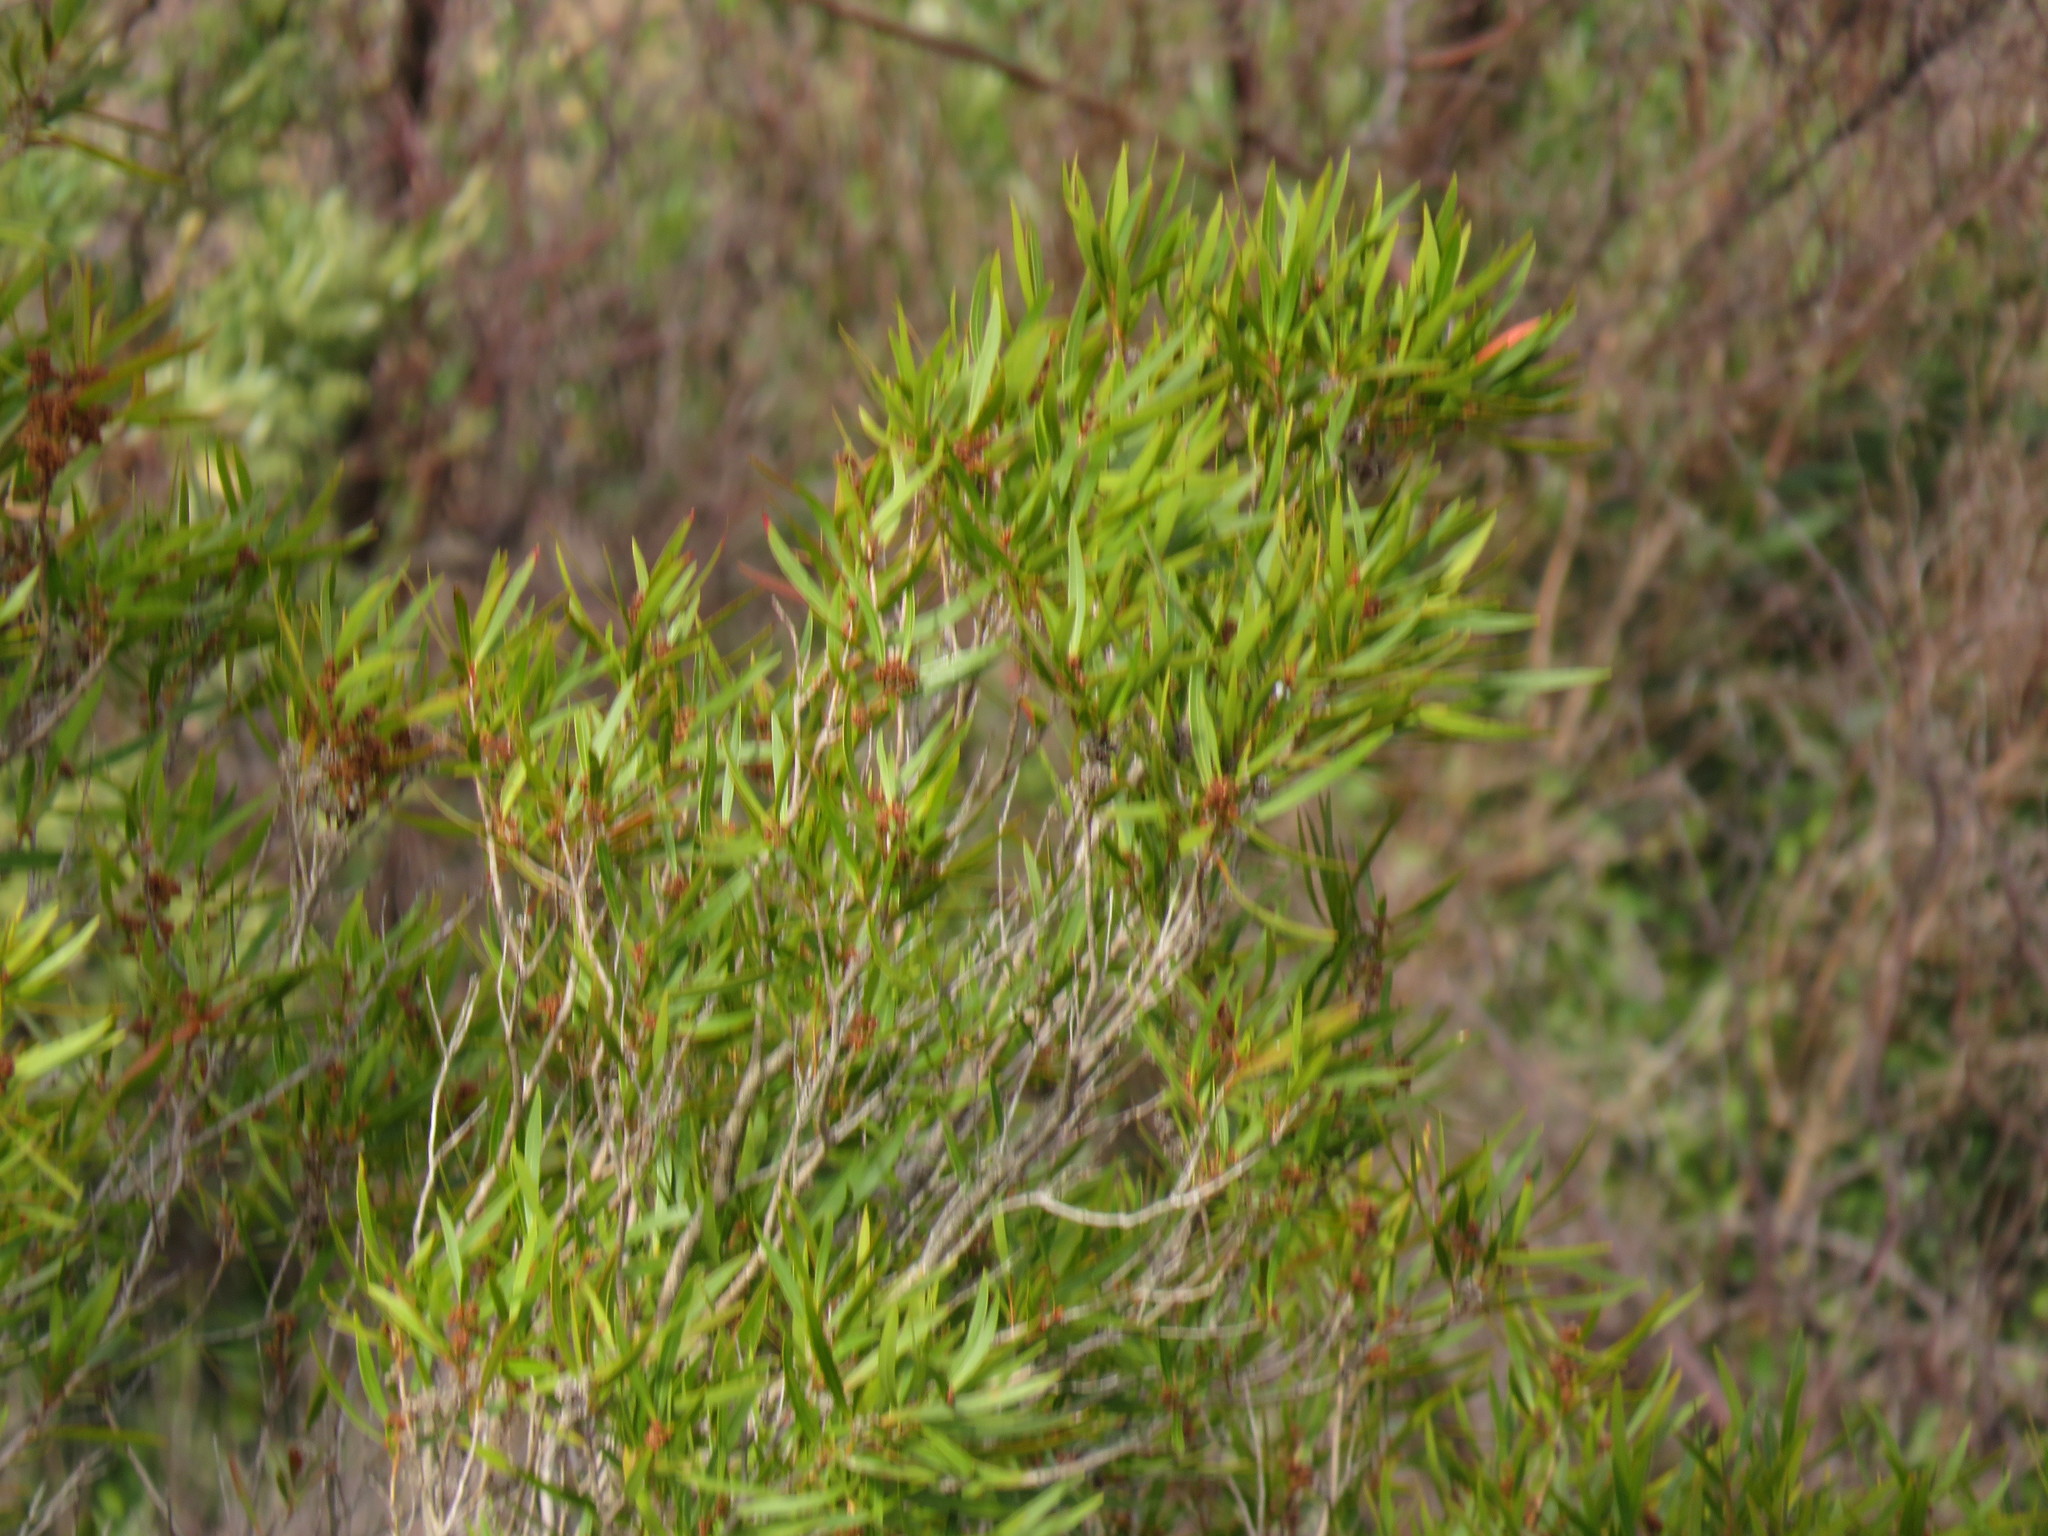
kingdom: Plantae
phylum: Tracheophyta
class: Magnoliopsida
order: Myrtales
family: Myrtaceae
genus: Callistemon
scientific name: Callistemon lanceolatus
